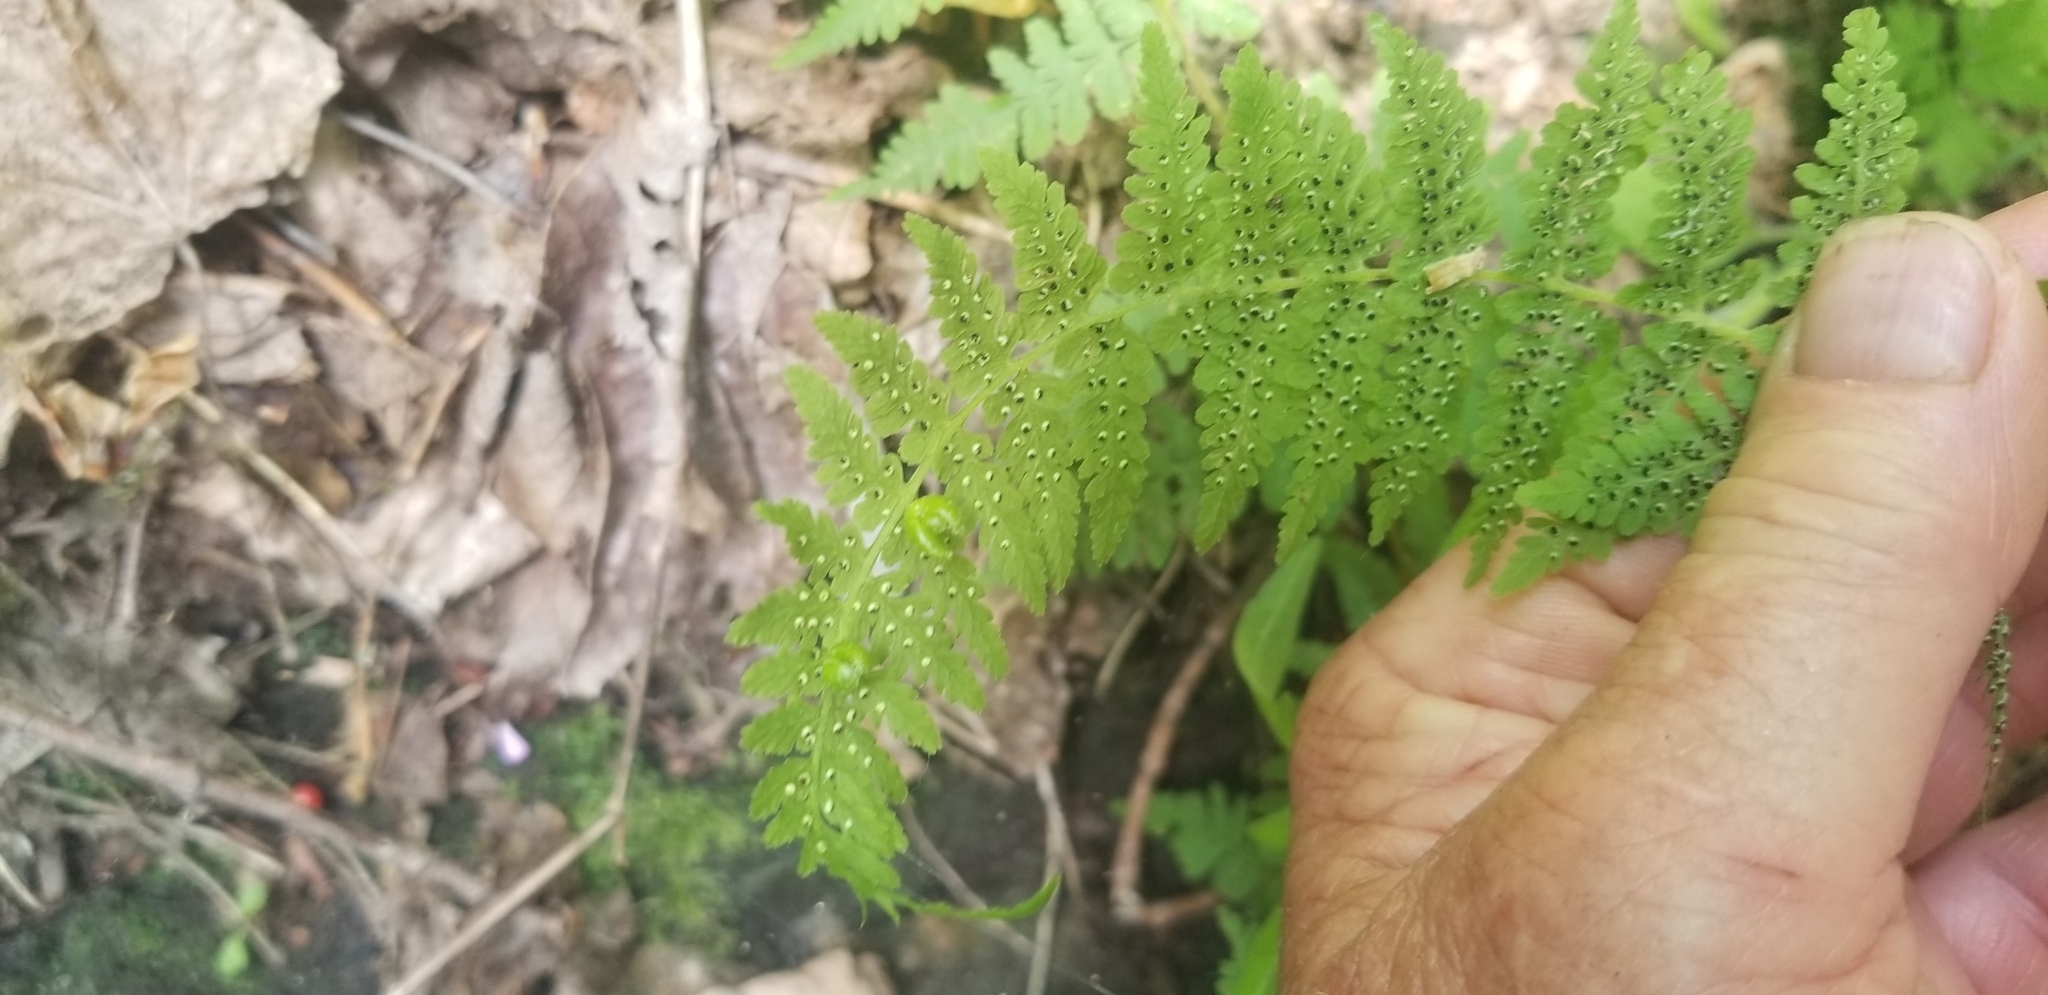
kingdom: Plantae
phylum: Tracheophyta
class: Polypodiopsida
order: Polypodiales
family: Cystopteridaceae
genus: Cystopteris
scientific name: Cystopteris bulbifera
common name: Bulblet bladder fern
